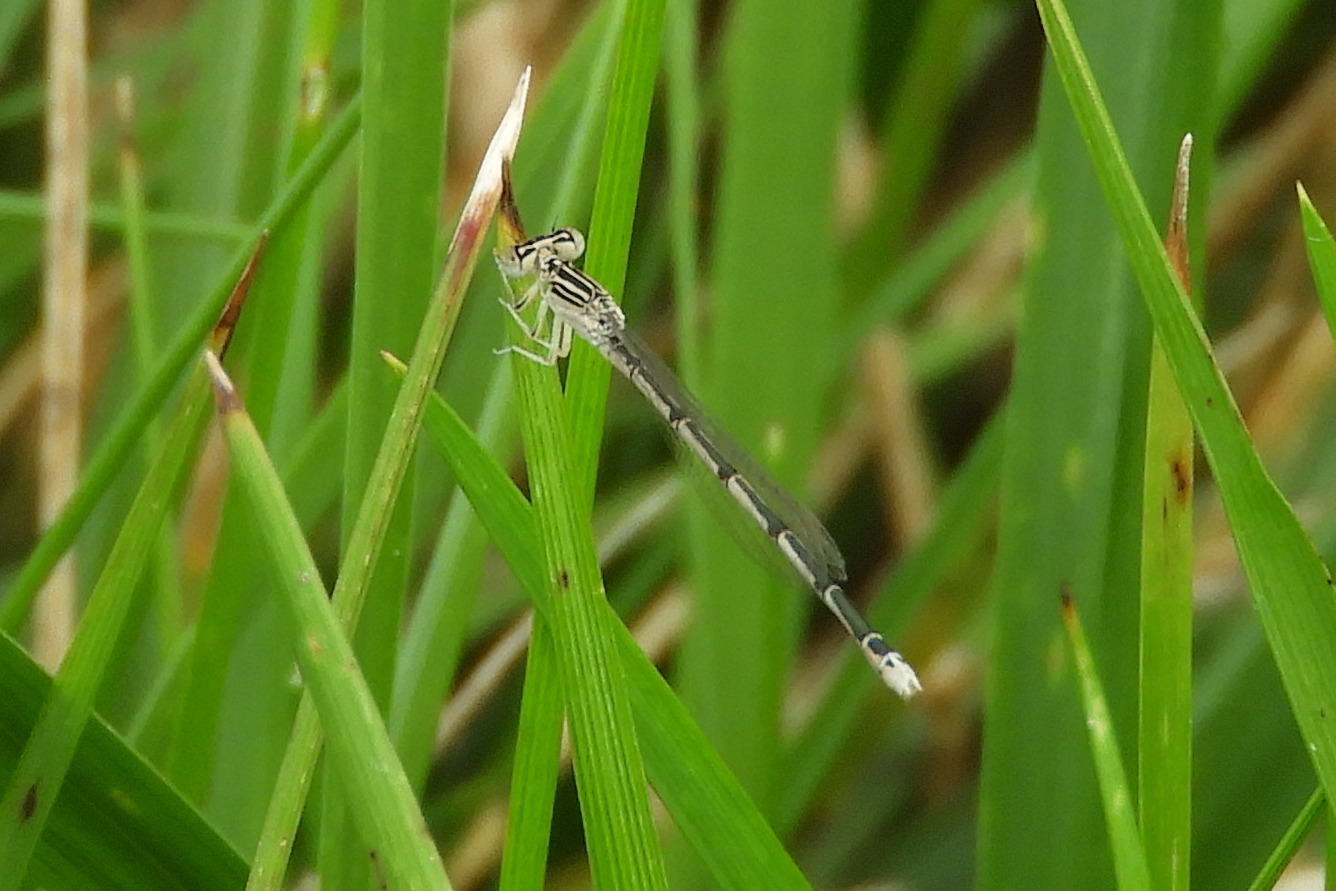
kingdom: Animalia
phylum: Arthropoda
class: Insecta
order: Odonata
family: Coenagrionidae
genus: Enallagma
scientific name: Enallagma basidens
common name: Double-striped bluet
